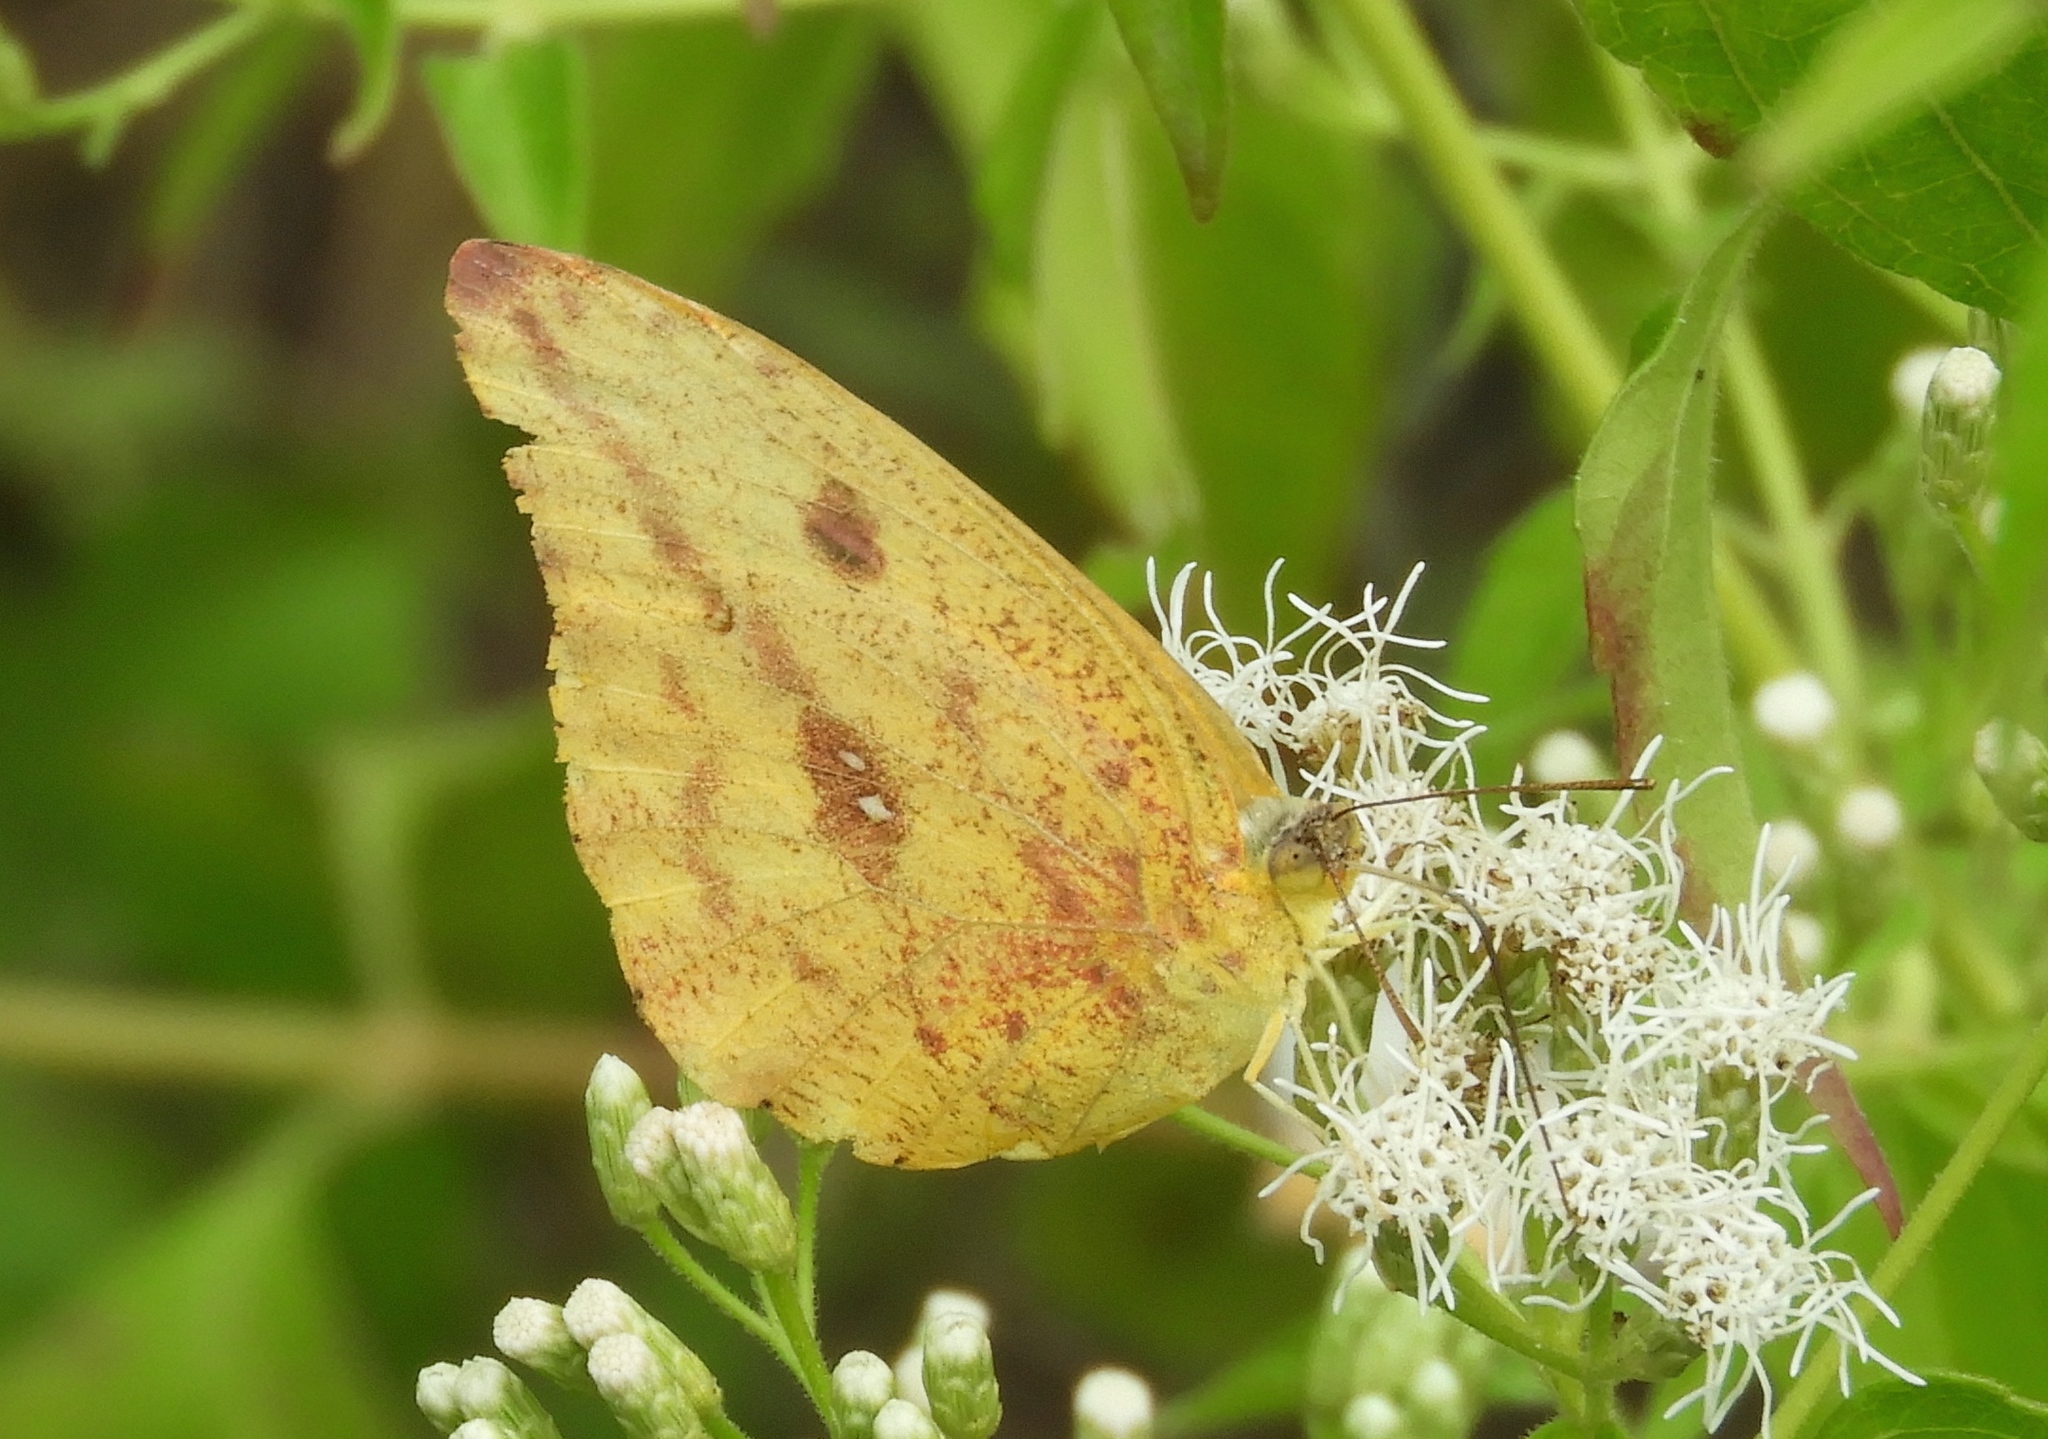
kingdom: Animalia
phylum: Arthropoda
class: Insecta
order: Lepidoptera
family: Pieridae
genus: Phoebis
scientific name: Phoebis agarithe
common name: Large orange sulphur
